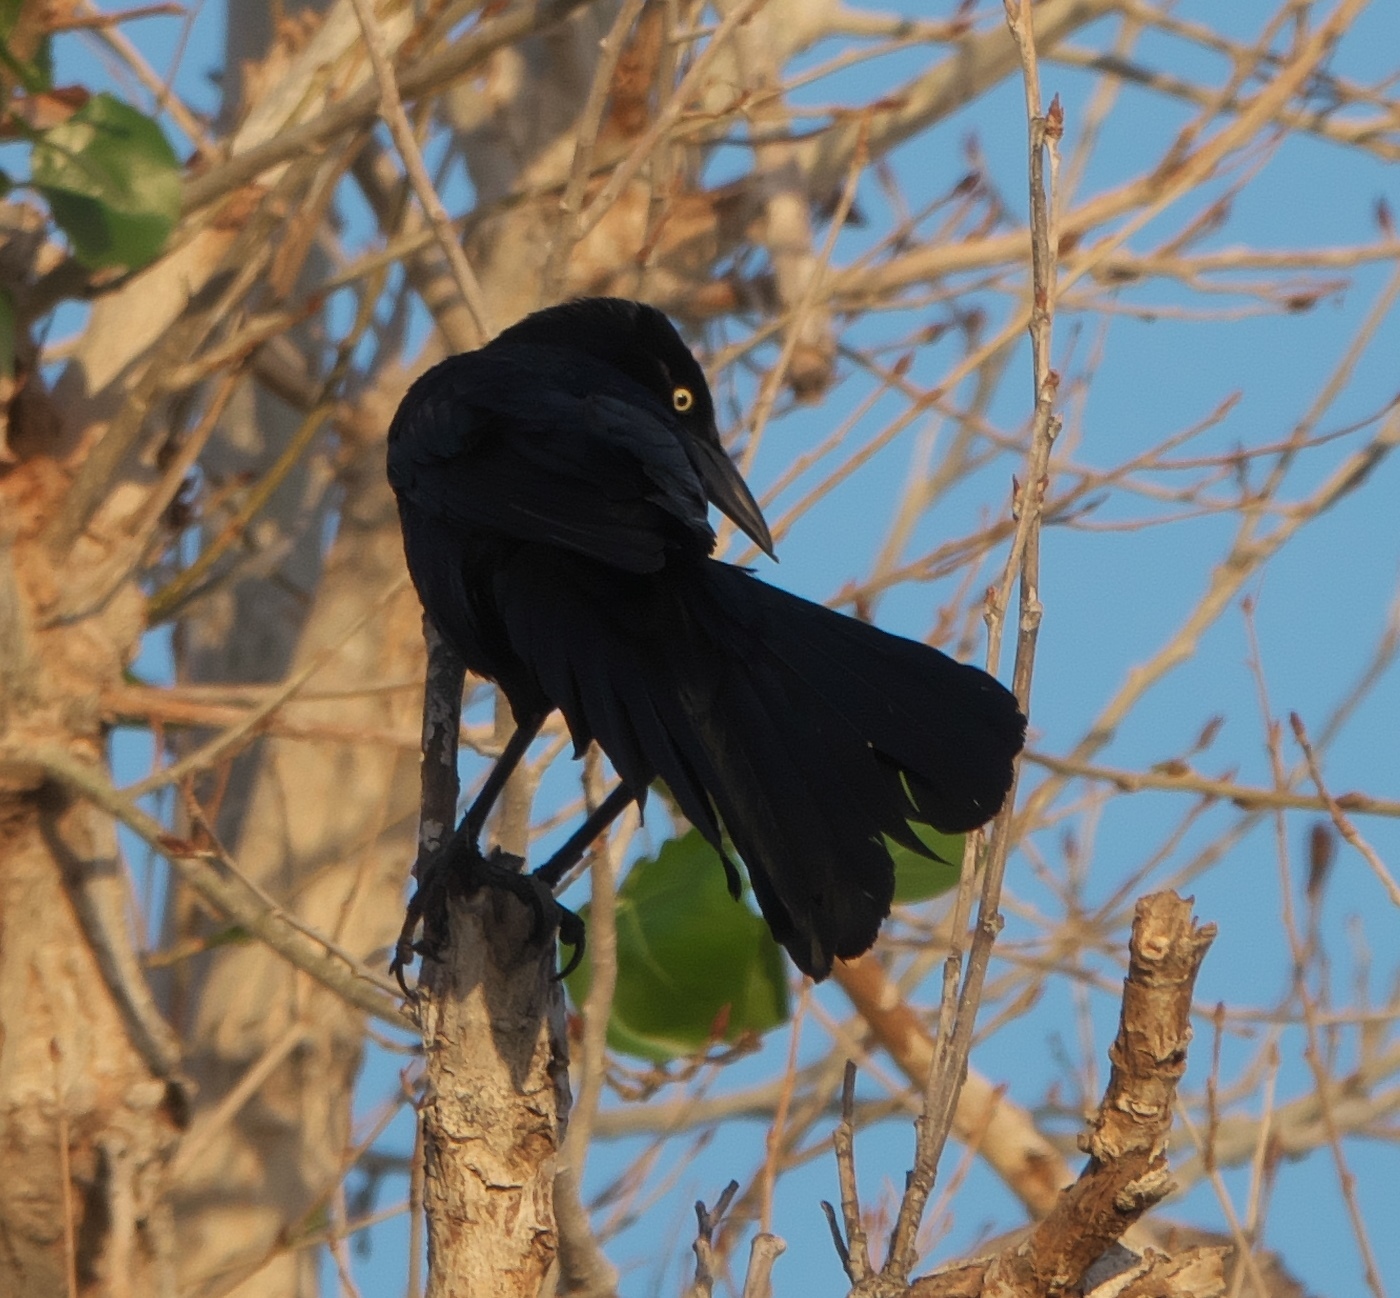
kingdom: Animalia
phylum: Chordata
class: Aves
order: Passeriformes
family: Icteridae
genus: Quiscalus
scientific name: Quiscalus mexicanus
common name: Great-tailed grackle
